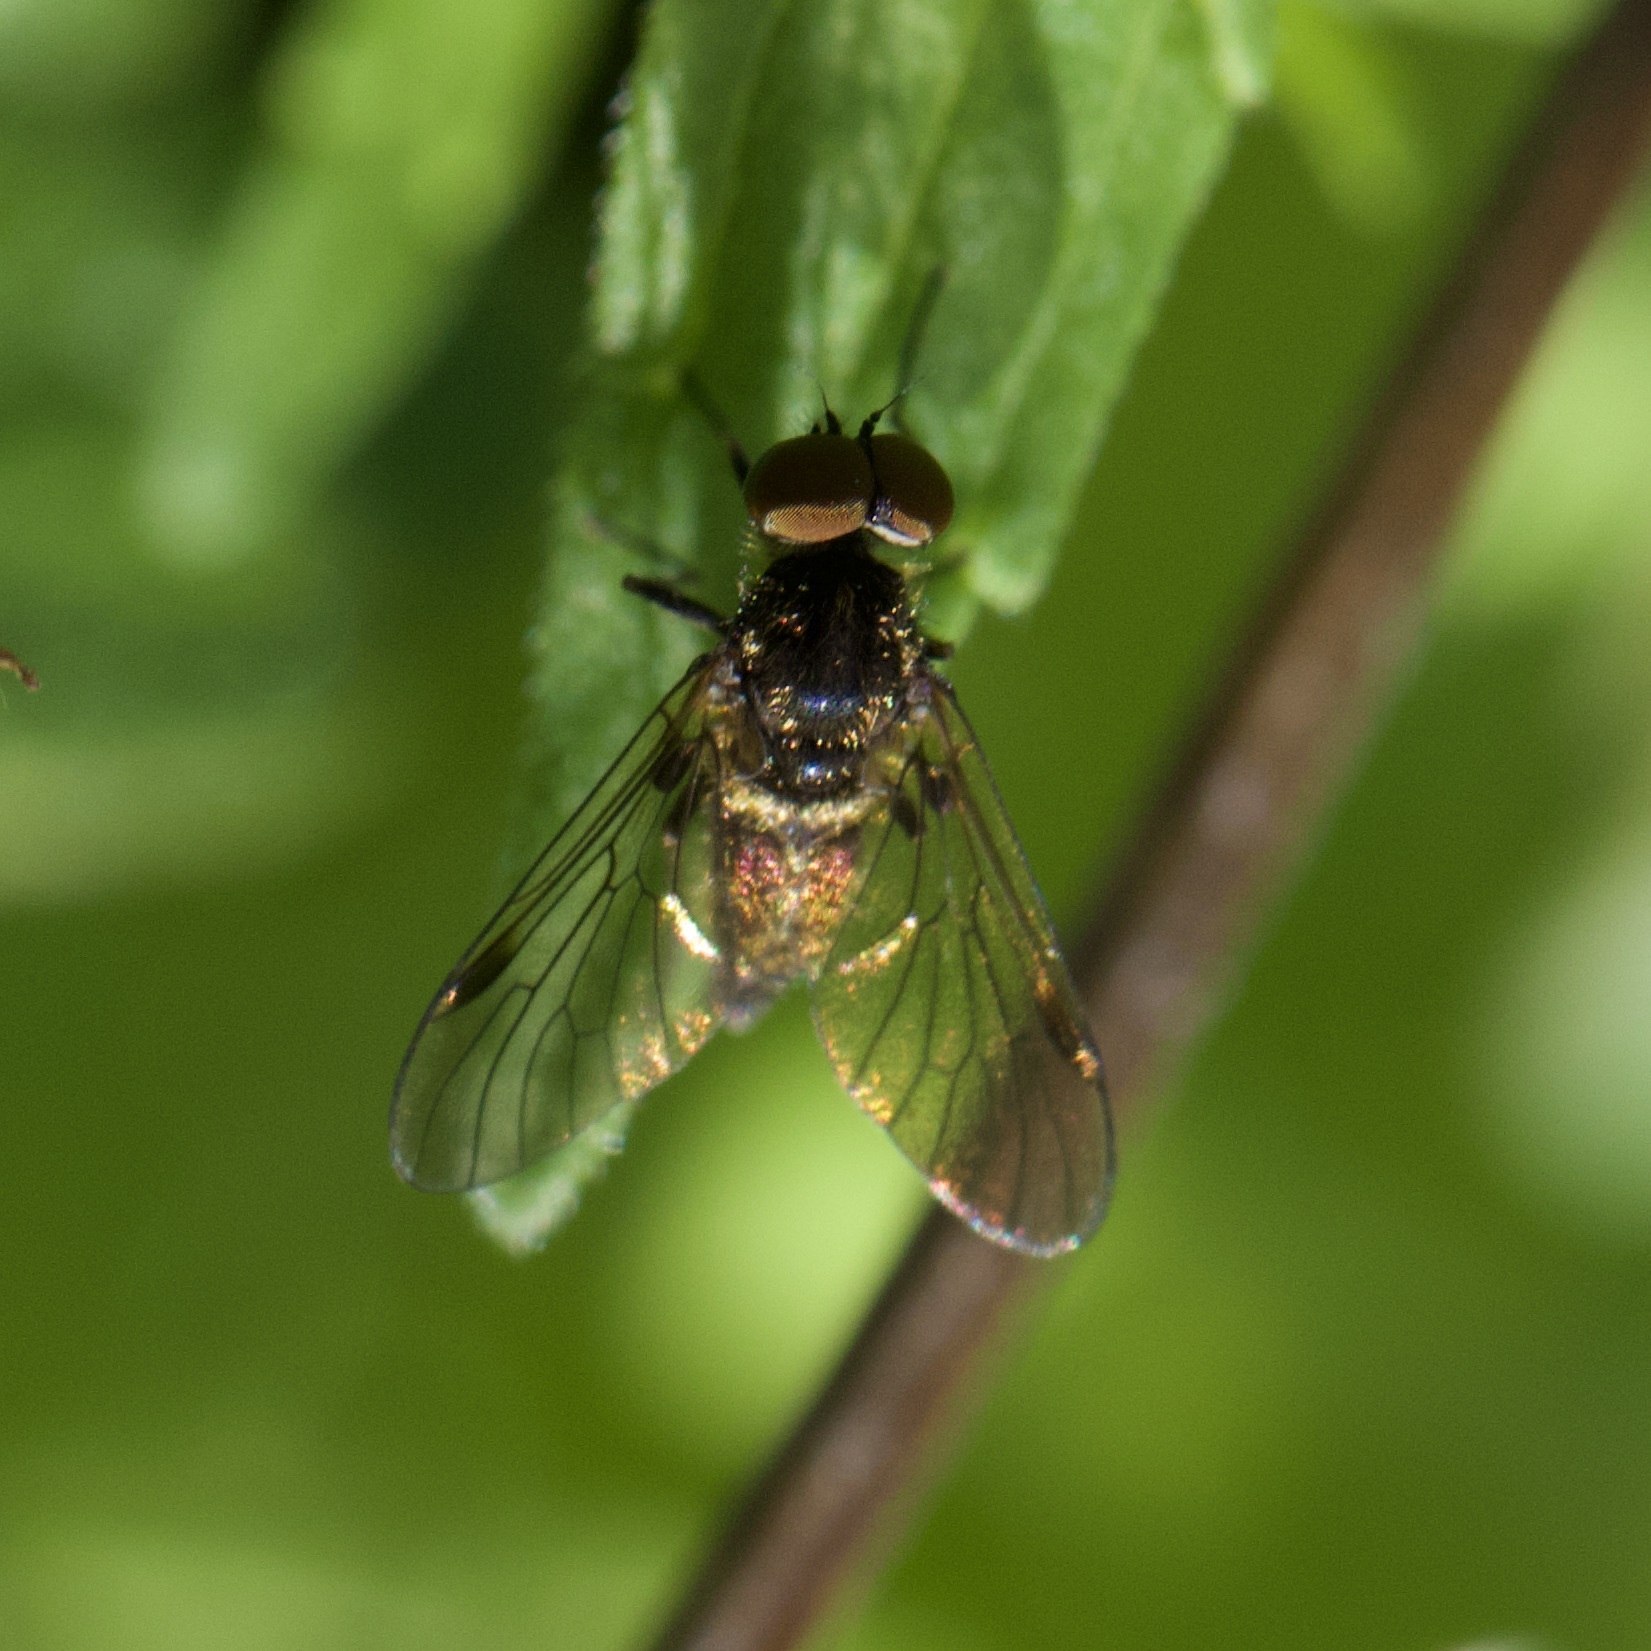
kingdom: Animalia
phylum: Arthropoda
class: Insecta
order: Diptera
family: Rhagionidae
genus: Chrysopilus
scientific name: Chrysopilus cristatus
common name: Black snipefly
